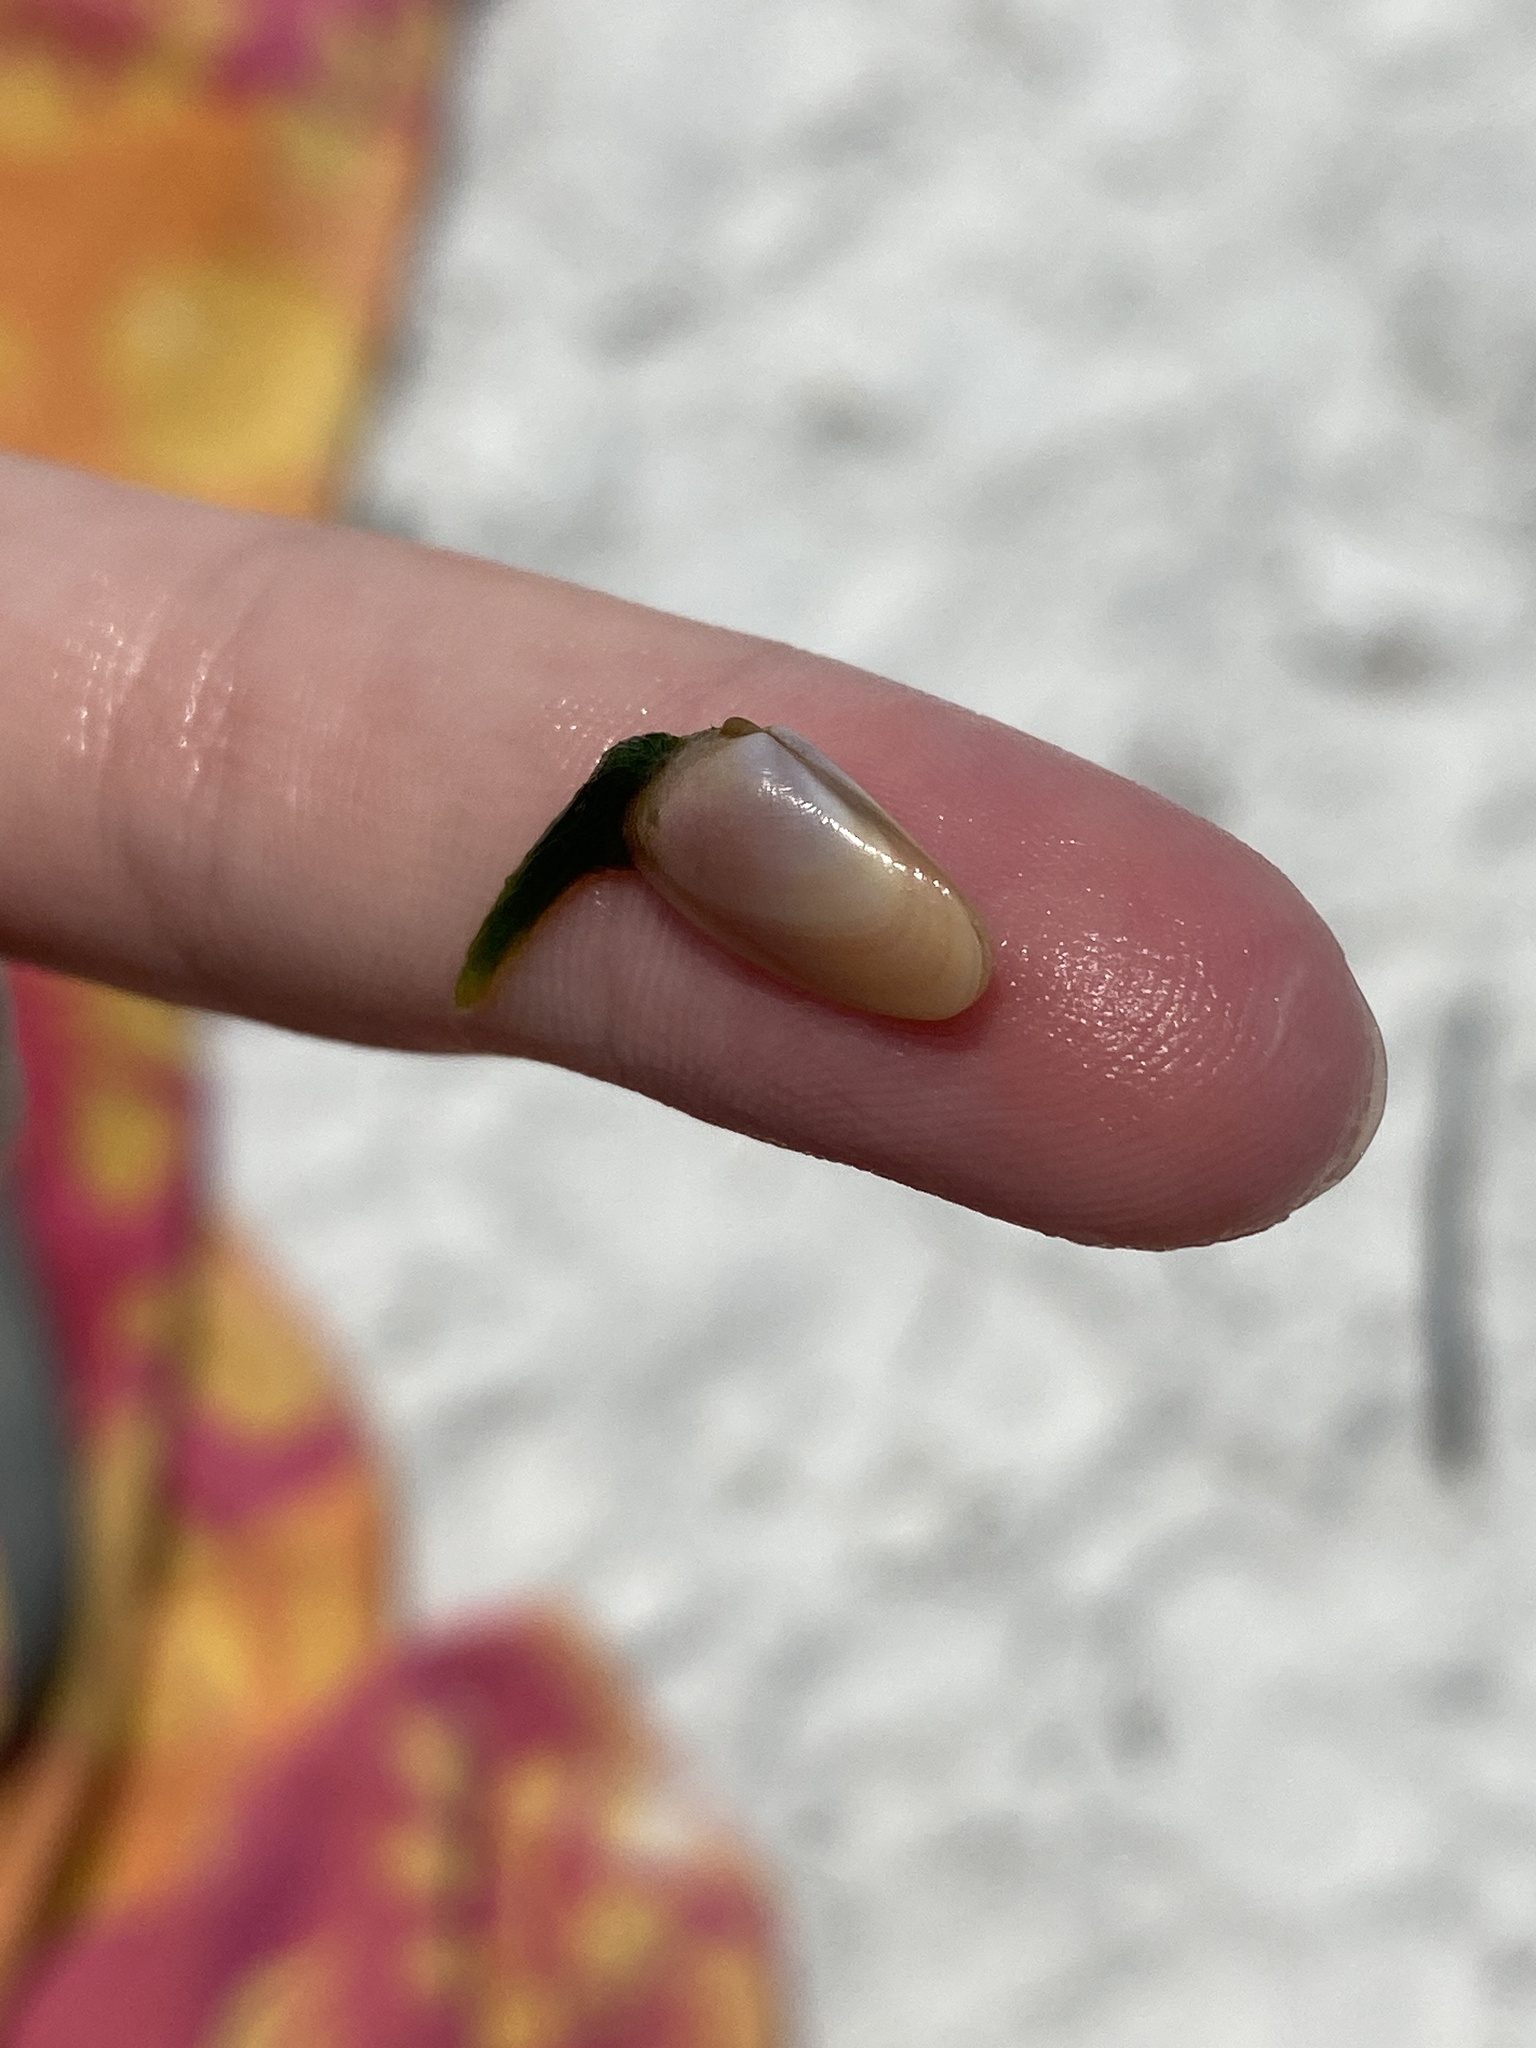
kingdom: Animalia
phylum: Mollusca
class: Bivalvia
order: Cardiida
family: Donacidae
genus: Donax
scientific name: Donax variabilis
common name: Butterfly shell
